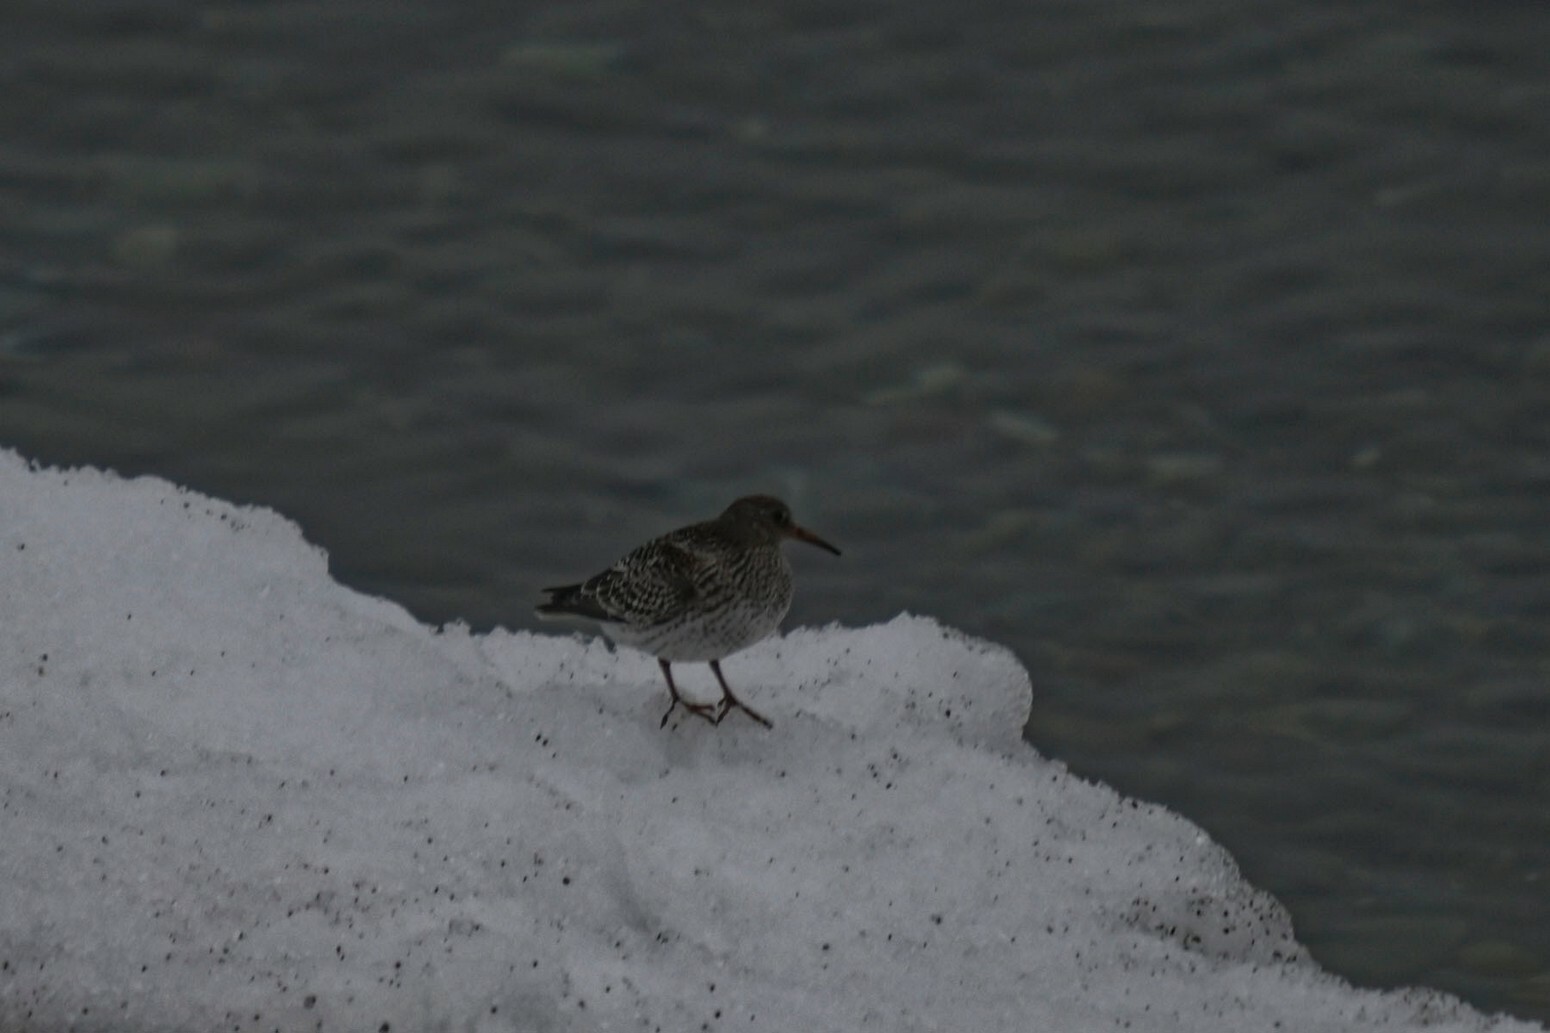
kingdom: Animalia
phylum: Chordata
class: Aves
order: Charadriiformes
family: Scolopacidae
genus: Calidris
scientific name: Calidris maritima
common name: Purple sandpiper
